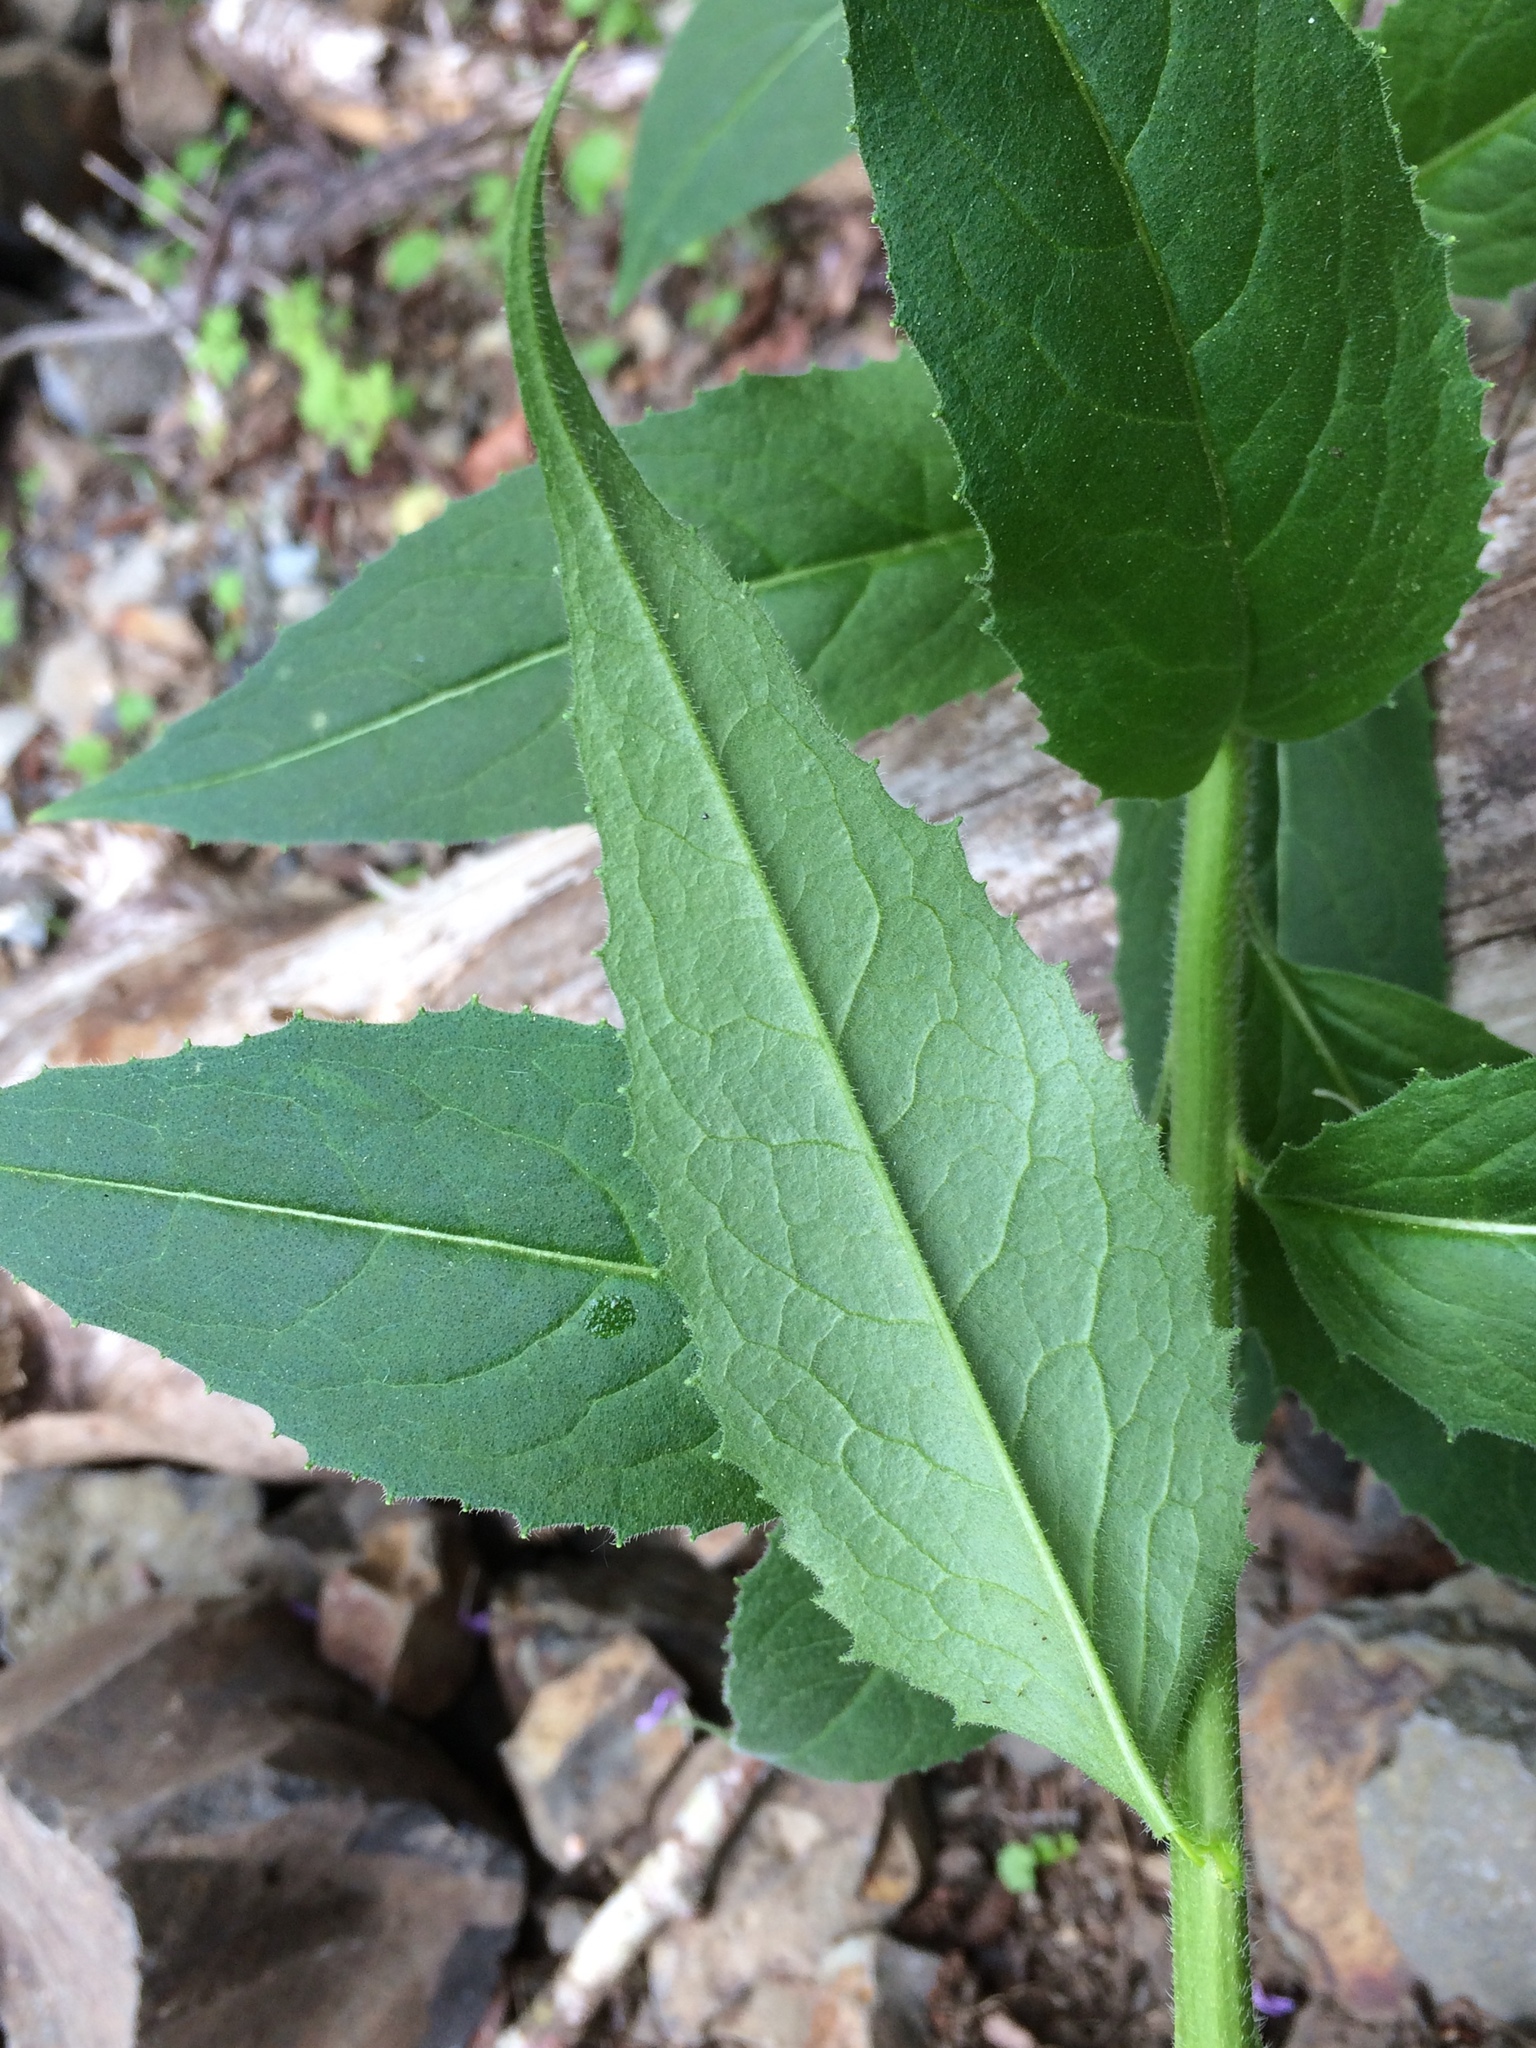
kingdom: Plantae
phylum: Tracheophyta
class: Magnoliopsida
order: Brassicales
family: Brassicaceae
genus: Hesperis
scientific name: Hesperis matronalis
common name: Dame's-violet
